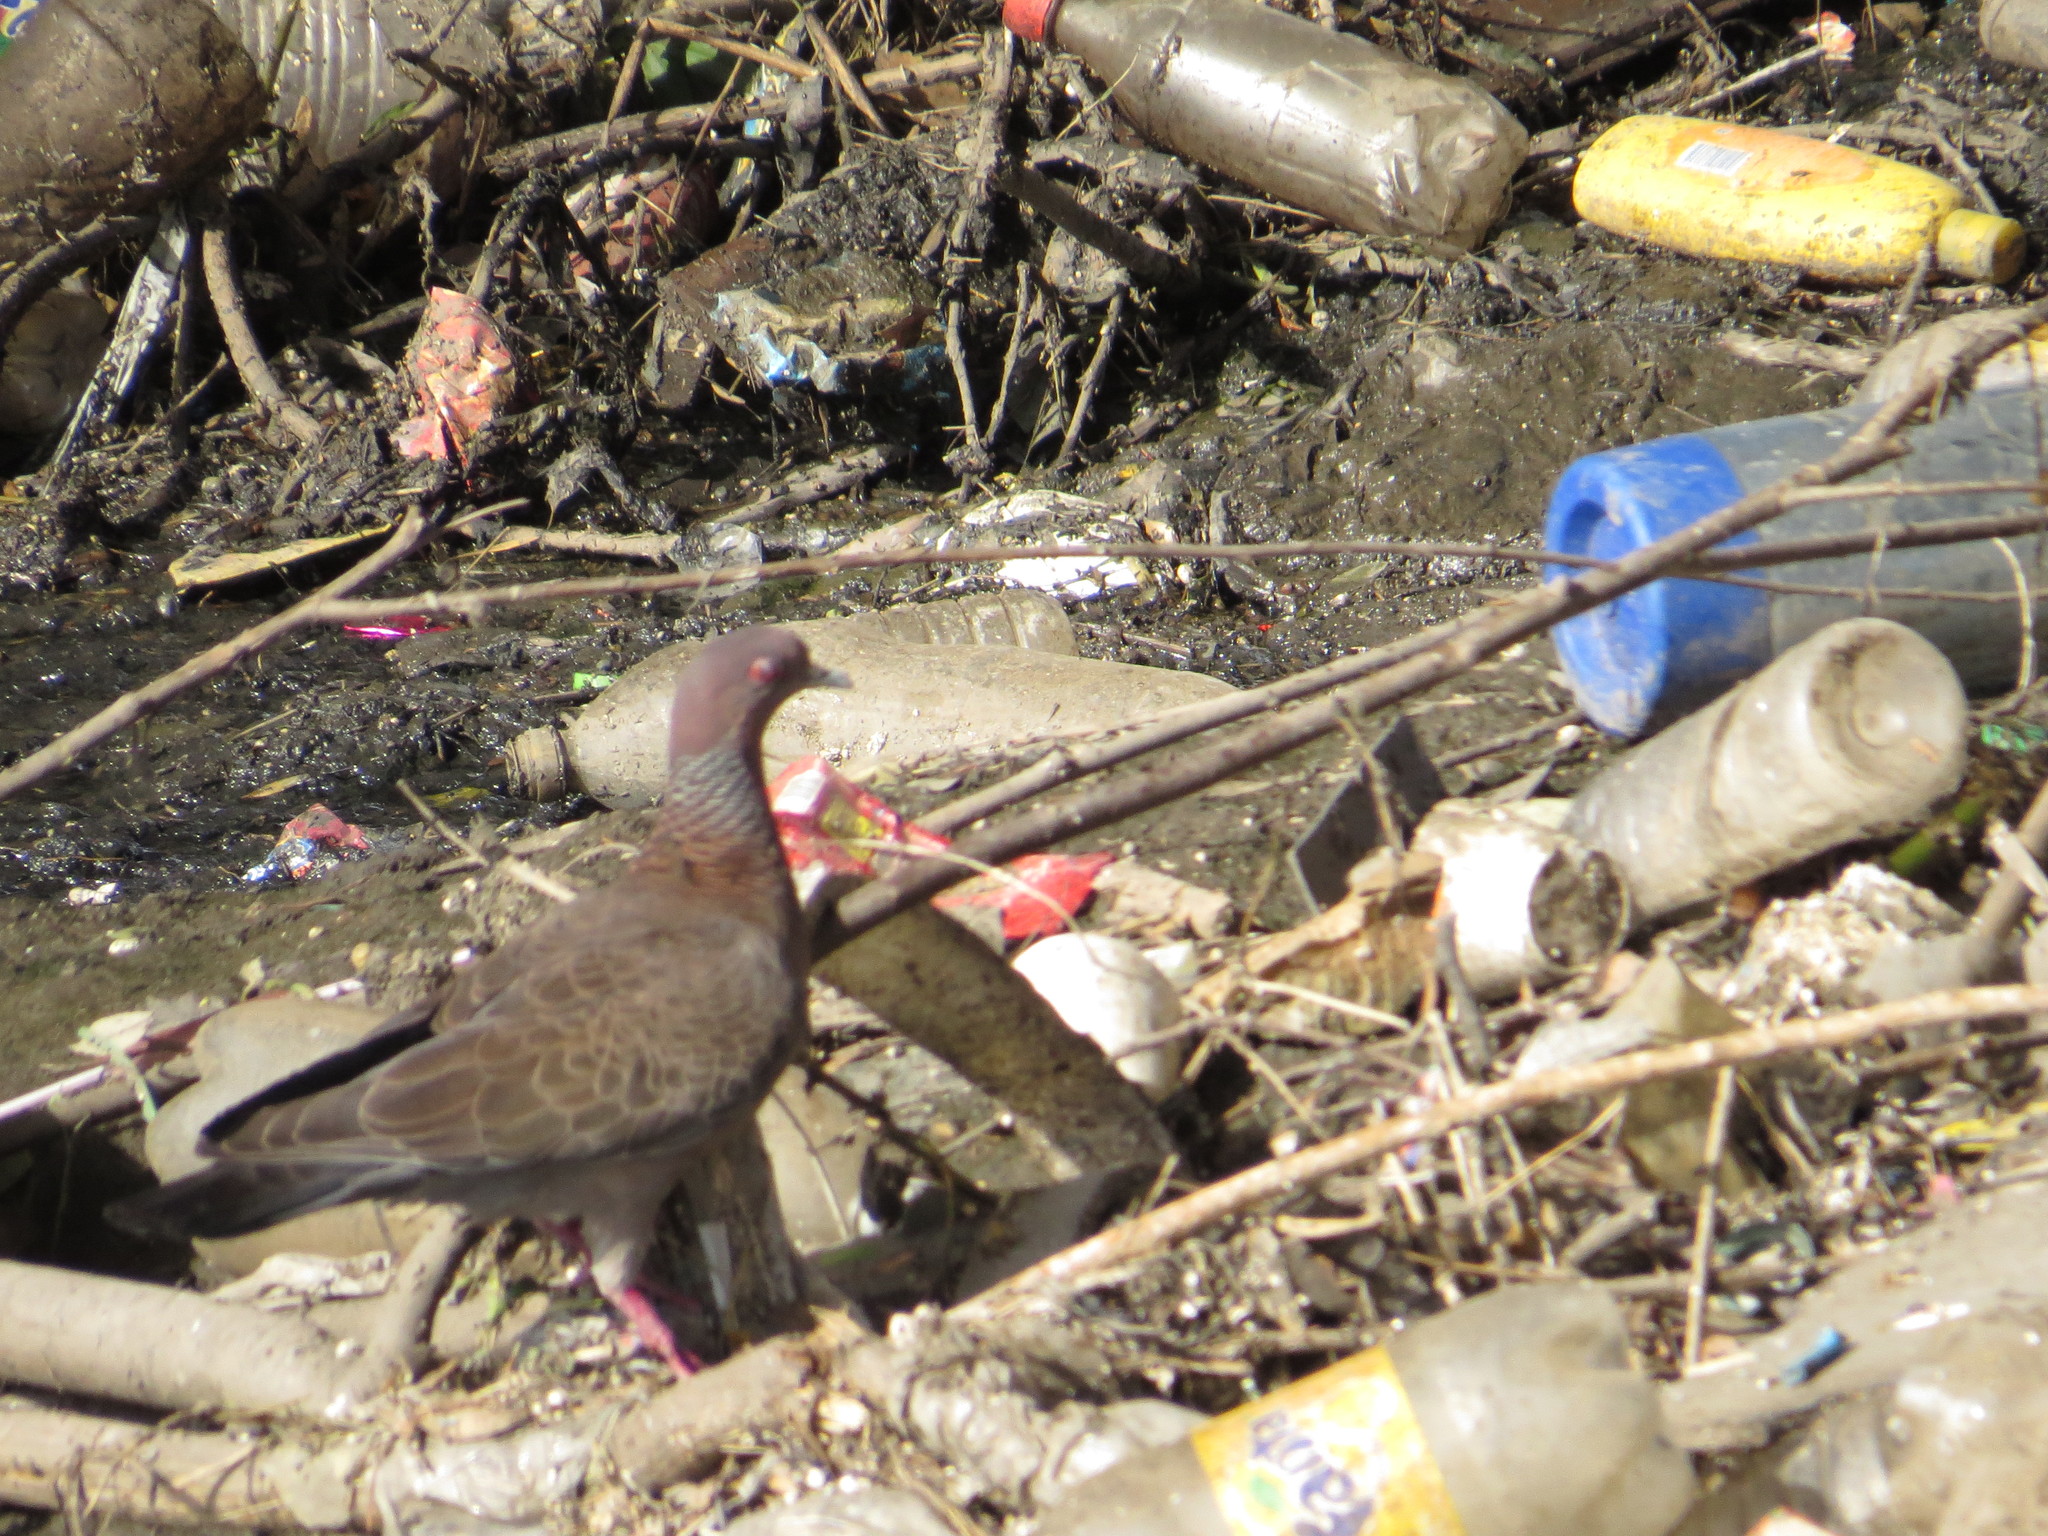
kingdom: Animalia
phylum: Chordata
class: Aves
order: Columbiformes
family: Columbidae
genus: Patagioenas
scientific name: Patagioenas picazuro
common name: Picazuro pigeon
